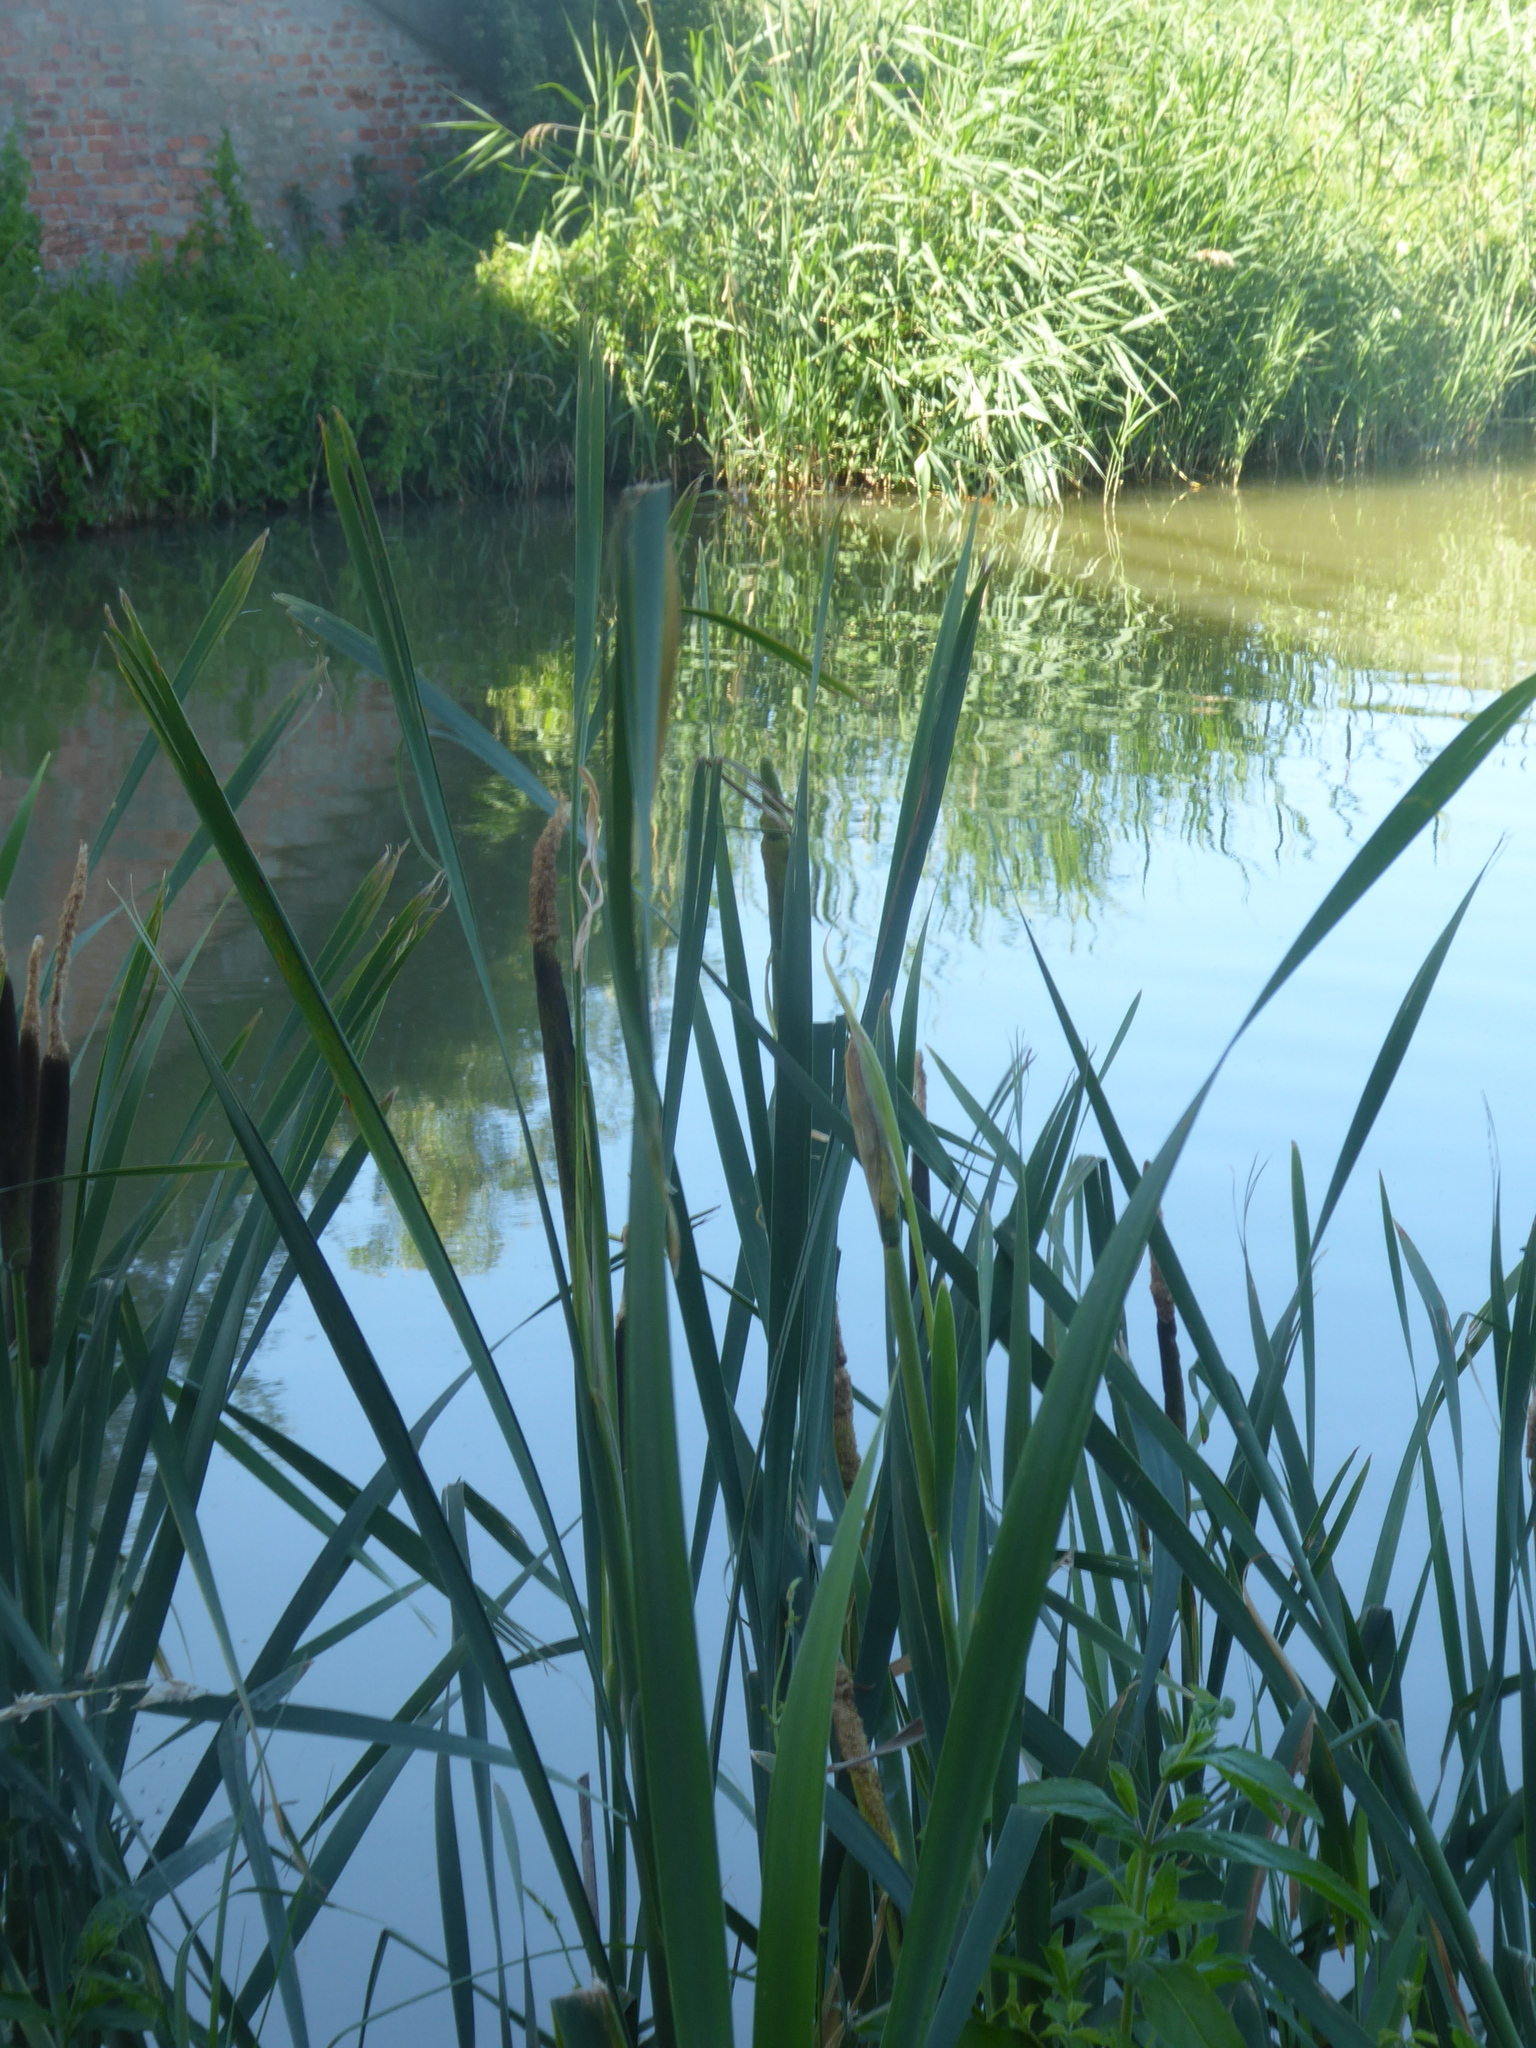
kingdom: Plantae
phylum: Tracheophyta
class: Liliopsida
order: Poales
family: Typhaceae
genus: Typha
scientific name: Typha latifolia
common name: Broadleaf cattail
